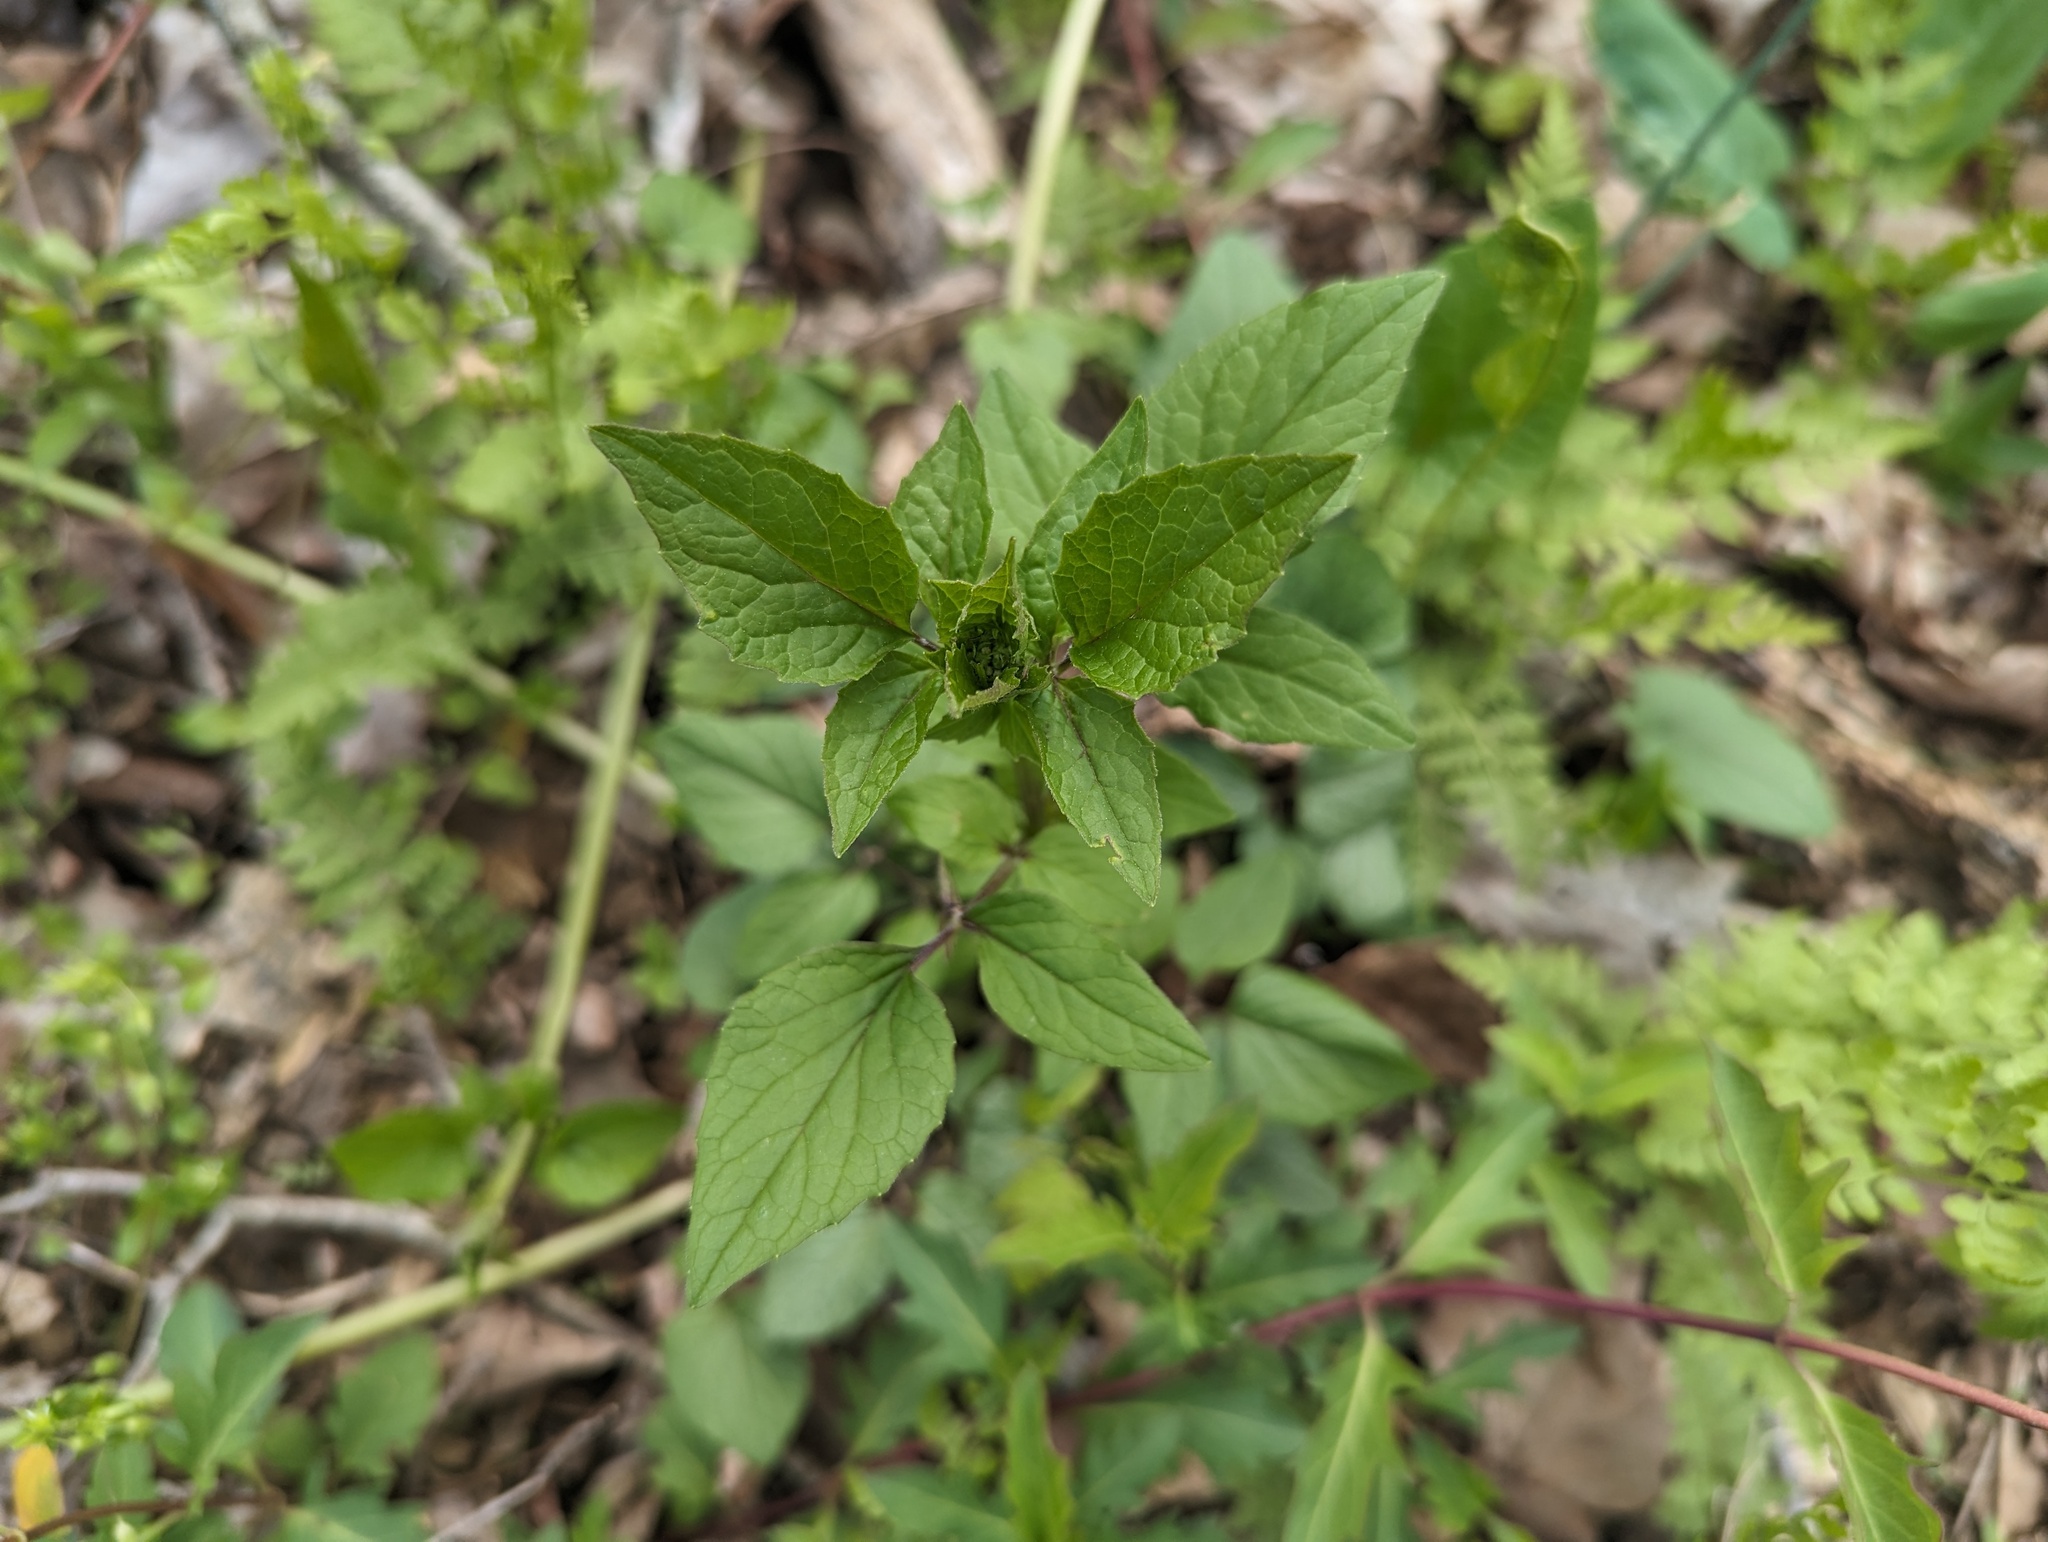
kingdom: Plantae
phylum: Tracheophyta
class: Magnoliopsida
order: Dipsacales
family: Caprifoliaceae
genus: Valeriana
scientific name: Valeriana pauciflora
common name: Long-tube valeriana
